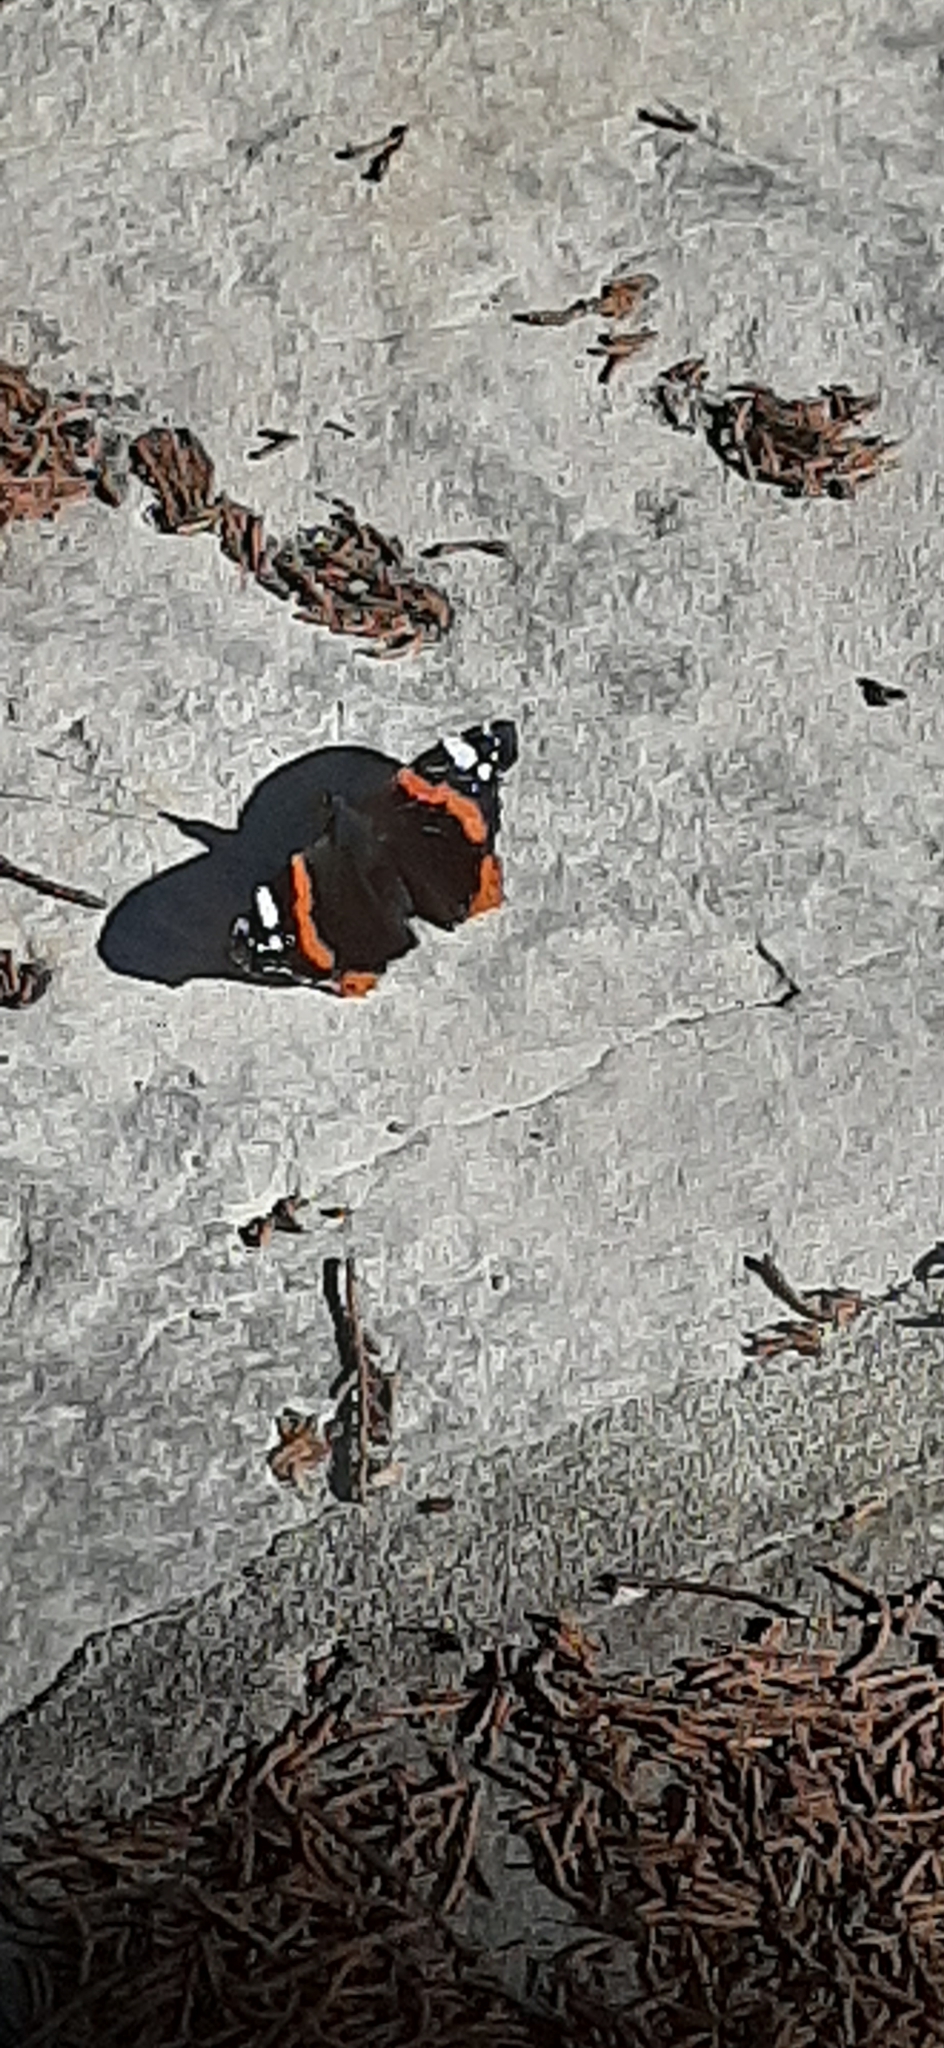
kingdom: Animalia
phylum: Arthropoda
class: Insecta
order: Lepidoptera
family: Nymphalidae
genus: Vanessa
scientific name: Vanessa atalanta
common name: Red admiral
